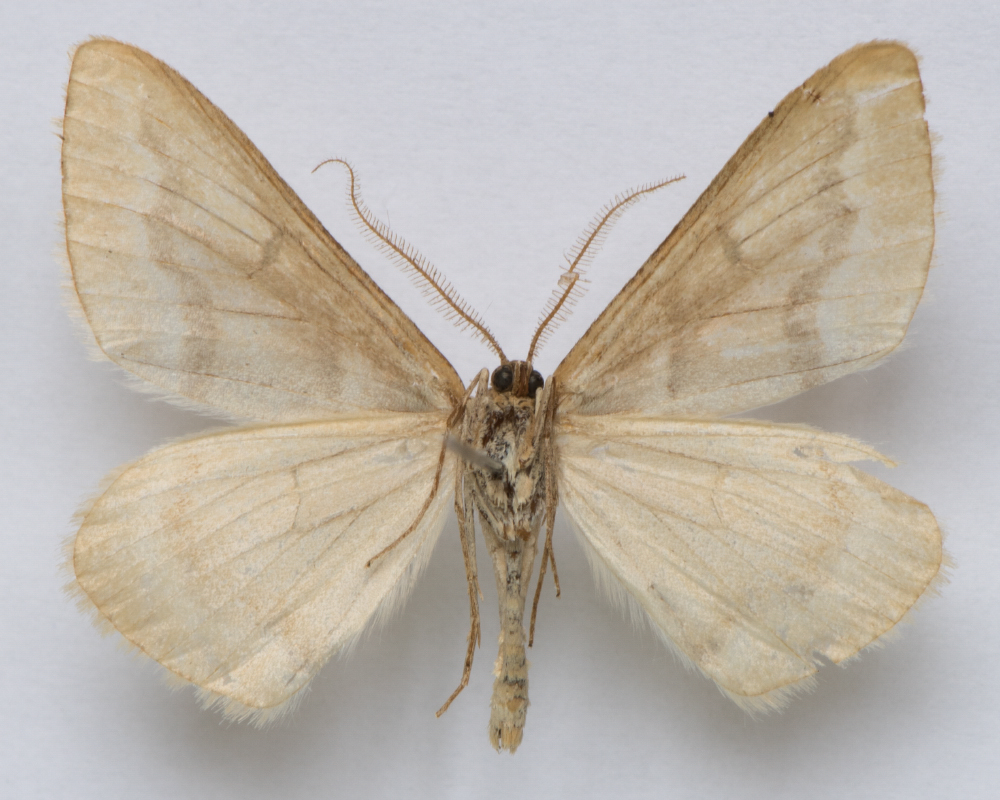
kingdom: Animalia
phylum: Arthropoda
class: Insecta
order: Lepidoptera
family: Geometridae
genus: Rhodostrophia
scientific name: Rhodostrophia jacularia
